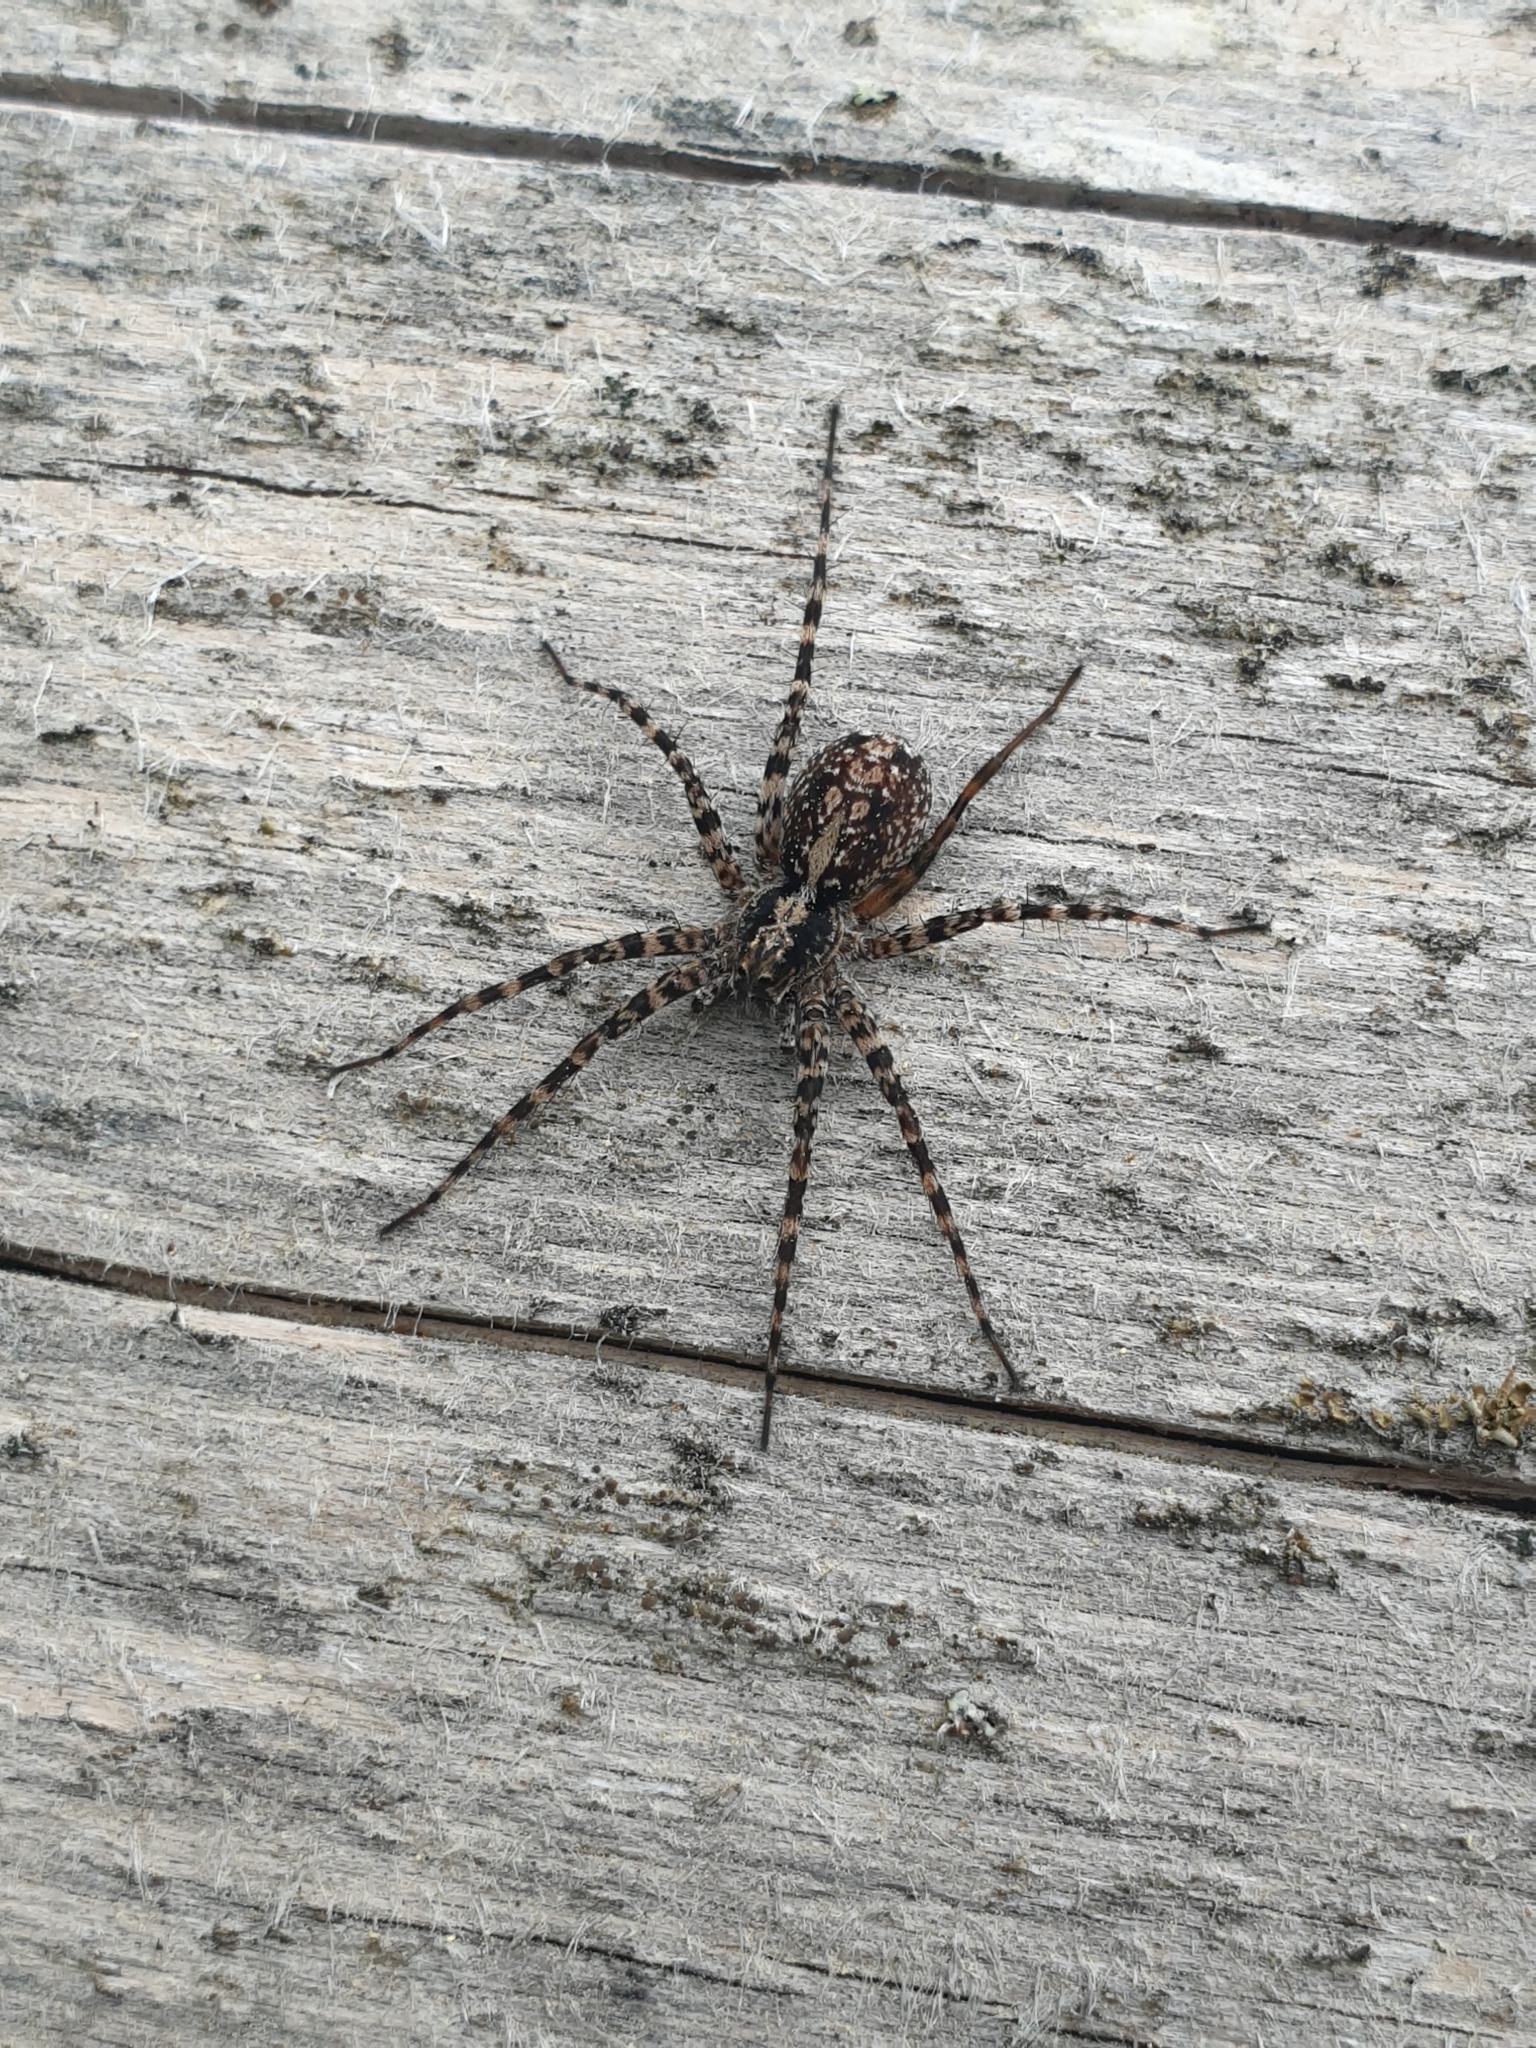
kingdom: Animalia
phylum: Arthropoda
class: Arachnida
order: Araneae
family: Lycosidae
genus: Acantholycosa
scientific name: Acantholycosa lignaria
